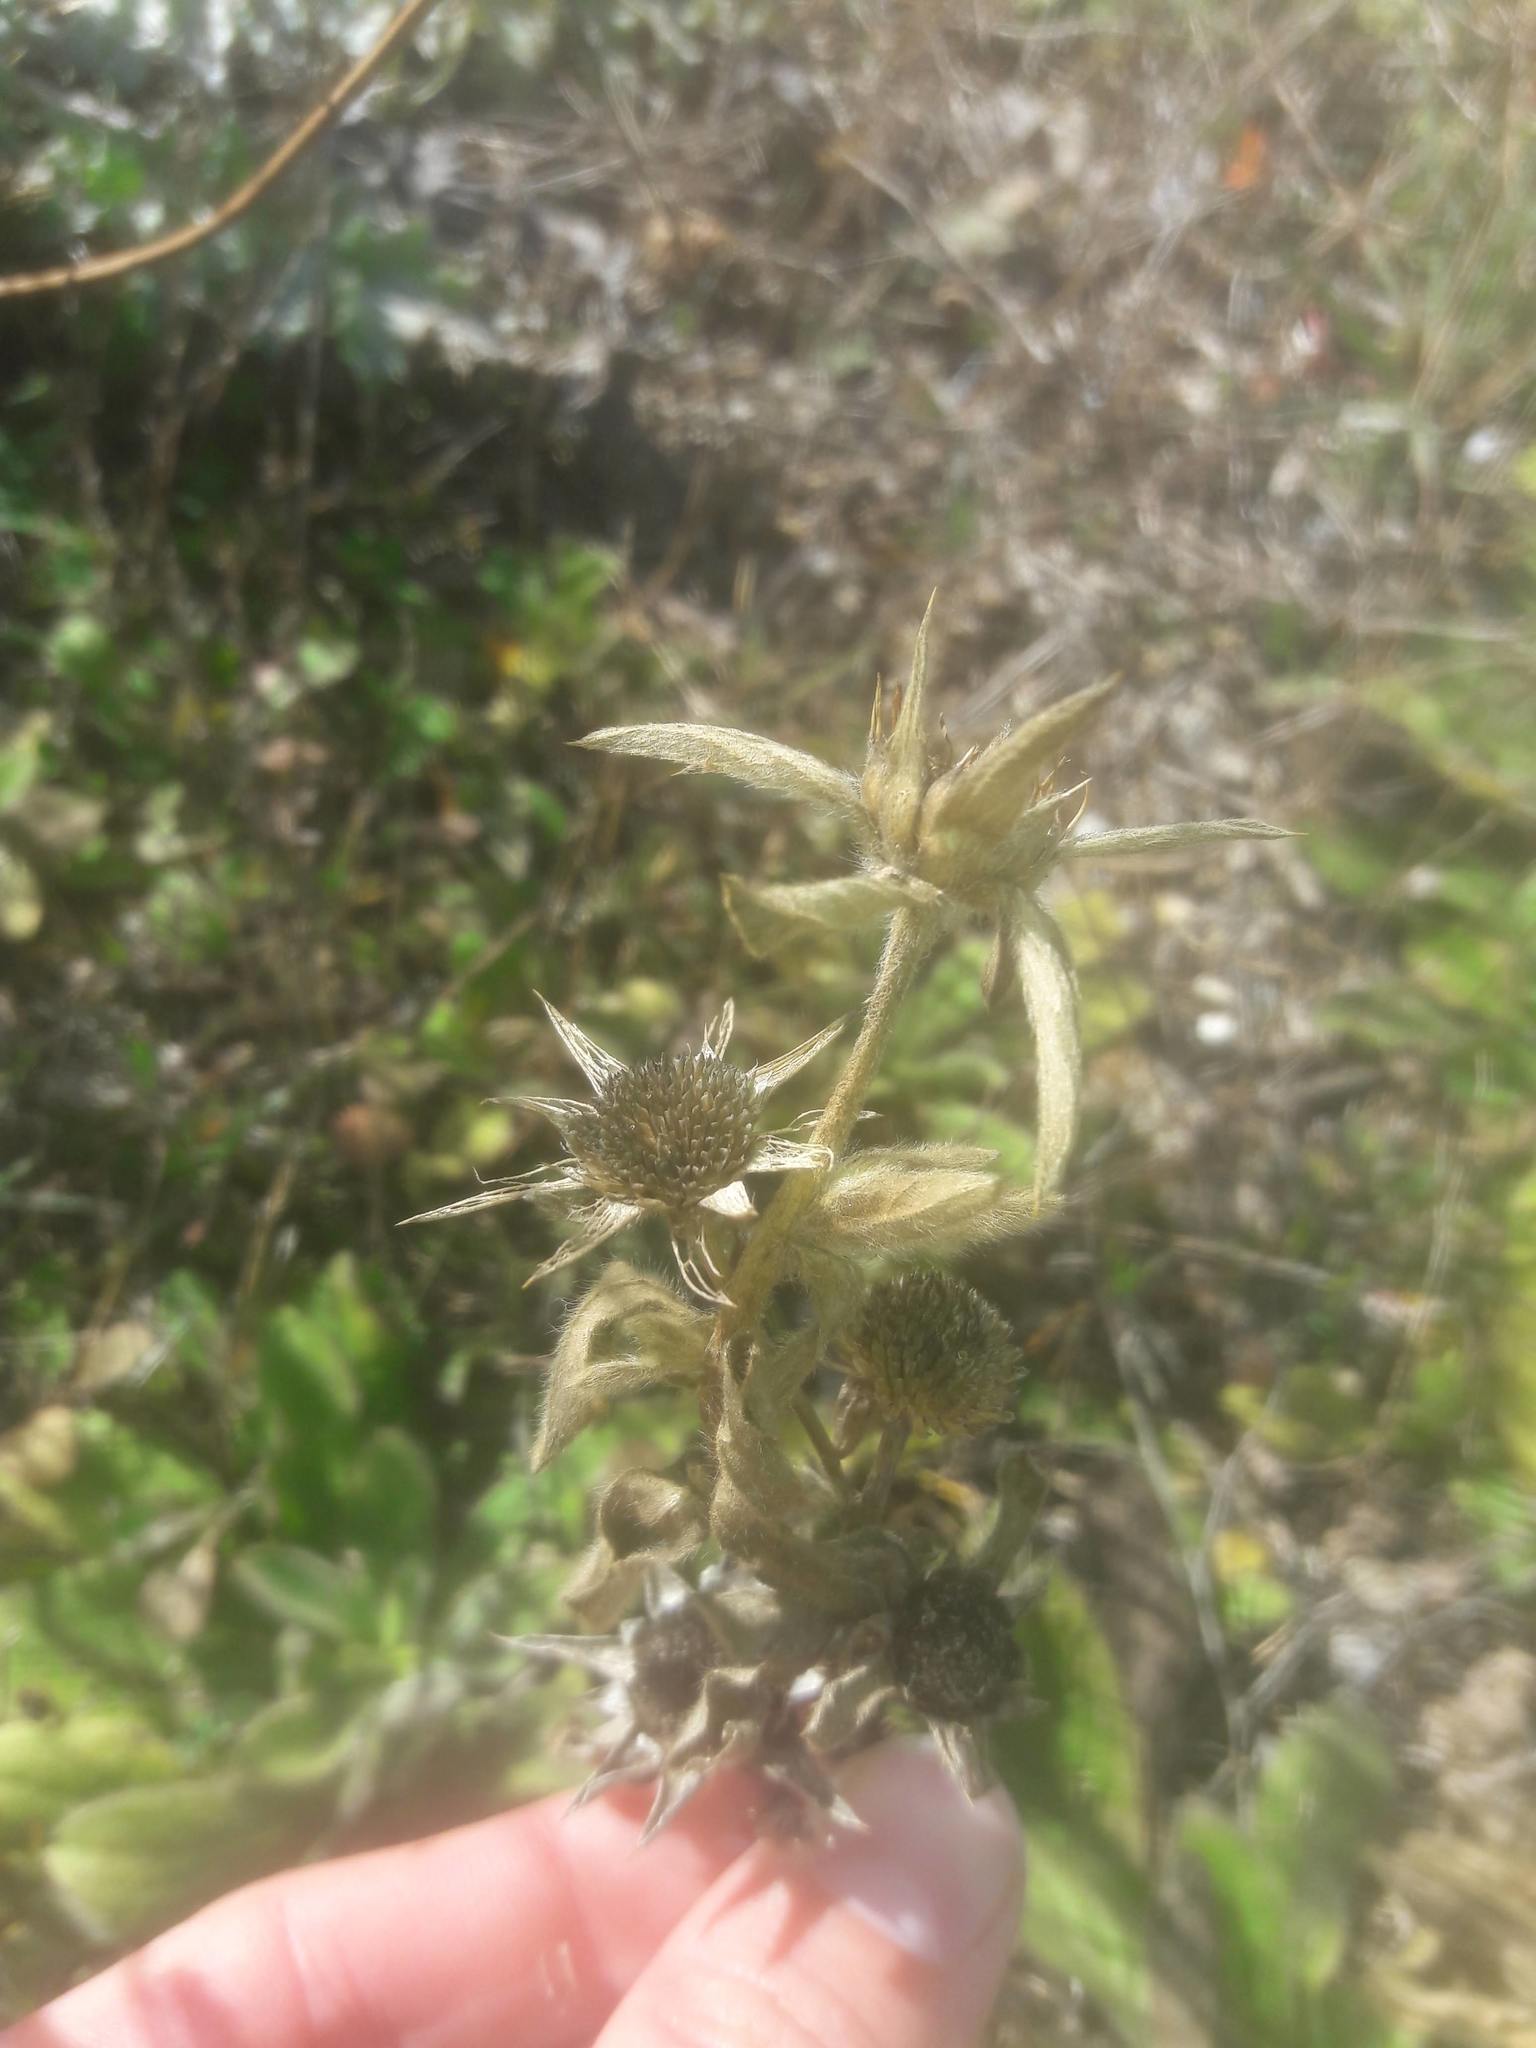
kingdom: Plantae
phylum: Tracheophyta
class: Magnoliopsida
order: Asterales
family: Asteraceae
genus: Pallenis
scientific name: Pallenis spinosa
